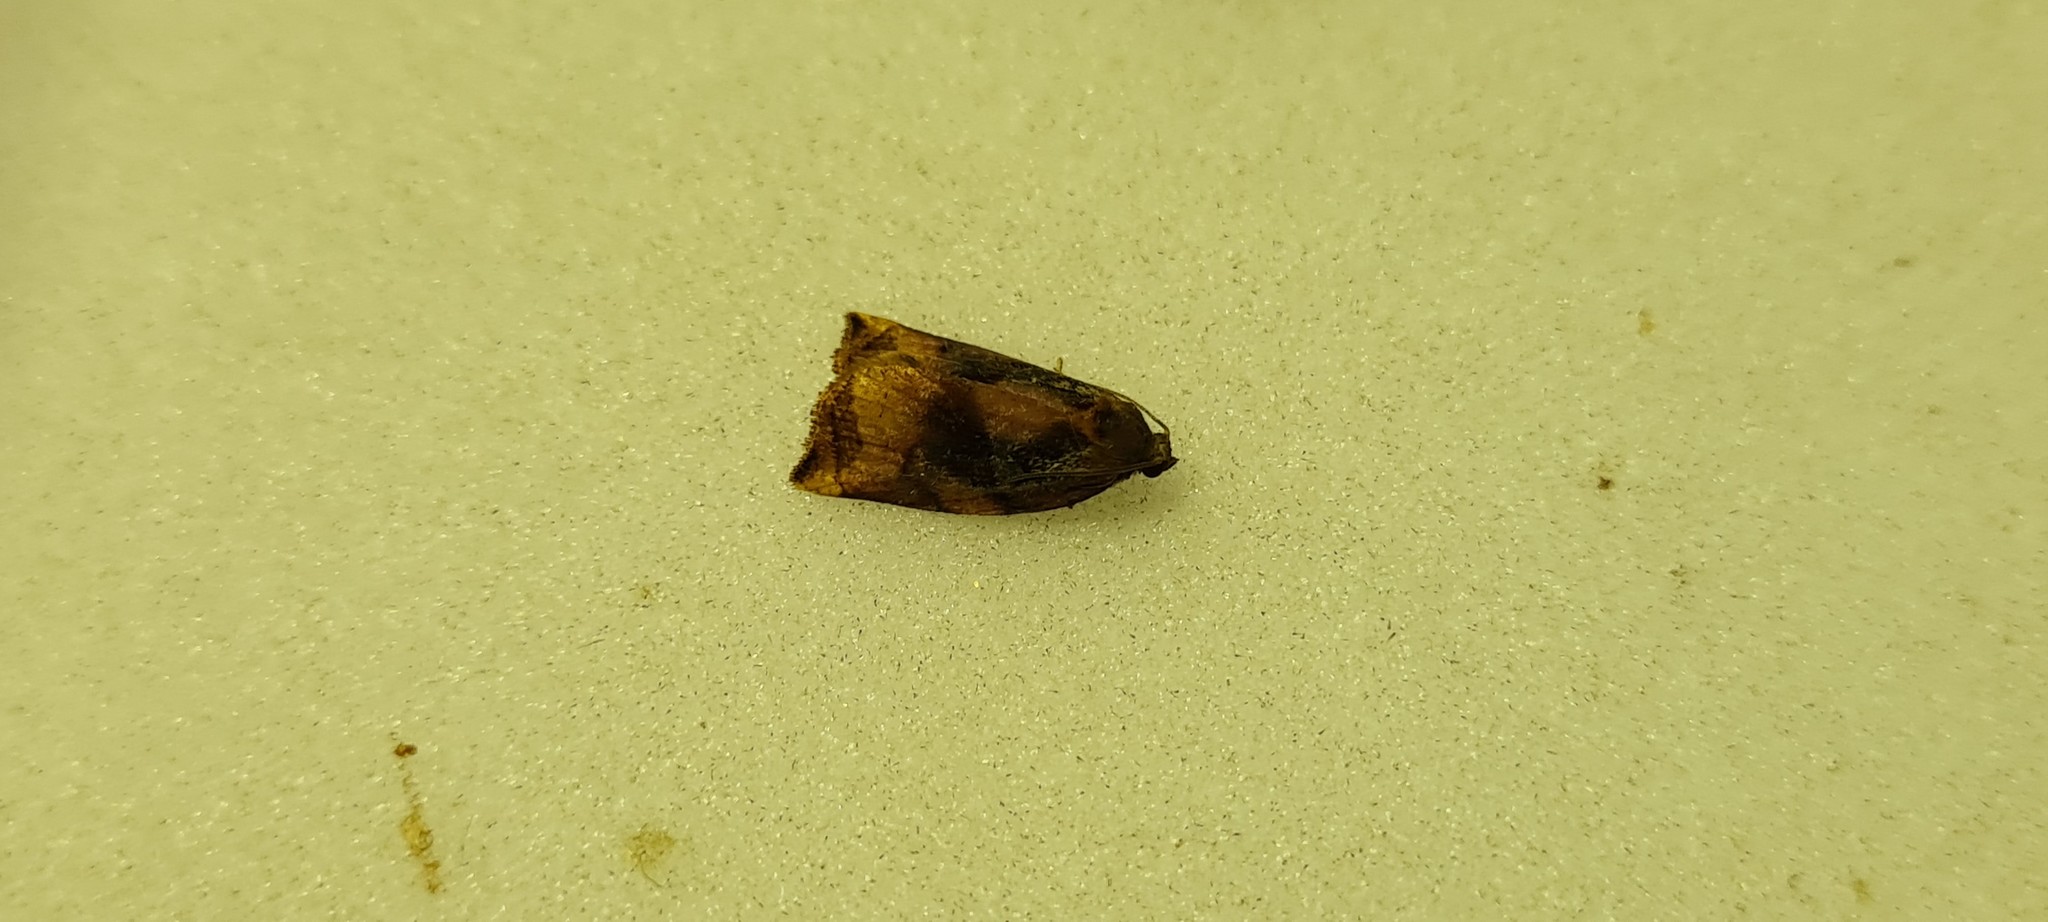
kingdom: Animalia
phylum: Arthropoda
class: Insecta
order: Lepidoptera
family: Tortricidae
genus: Archips
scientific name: Archips podana
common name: Large fruit-tree tortrix
